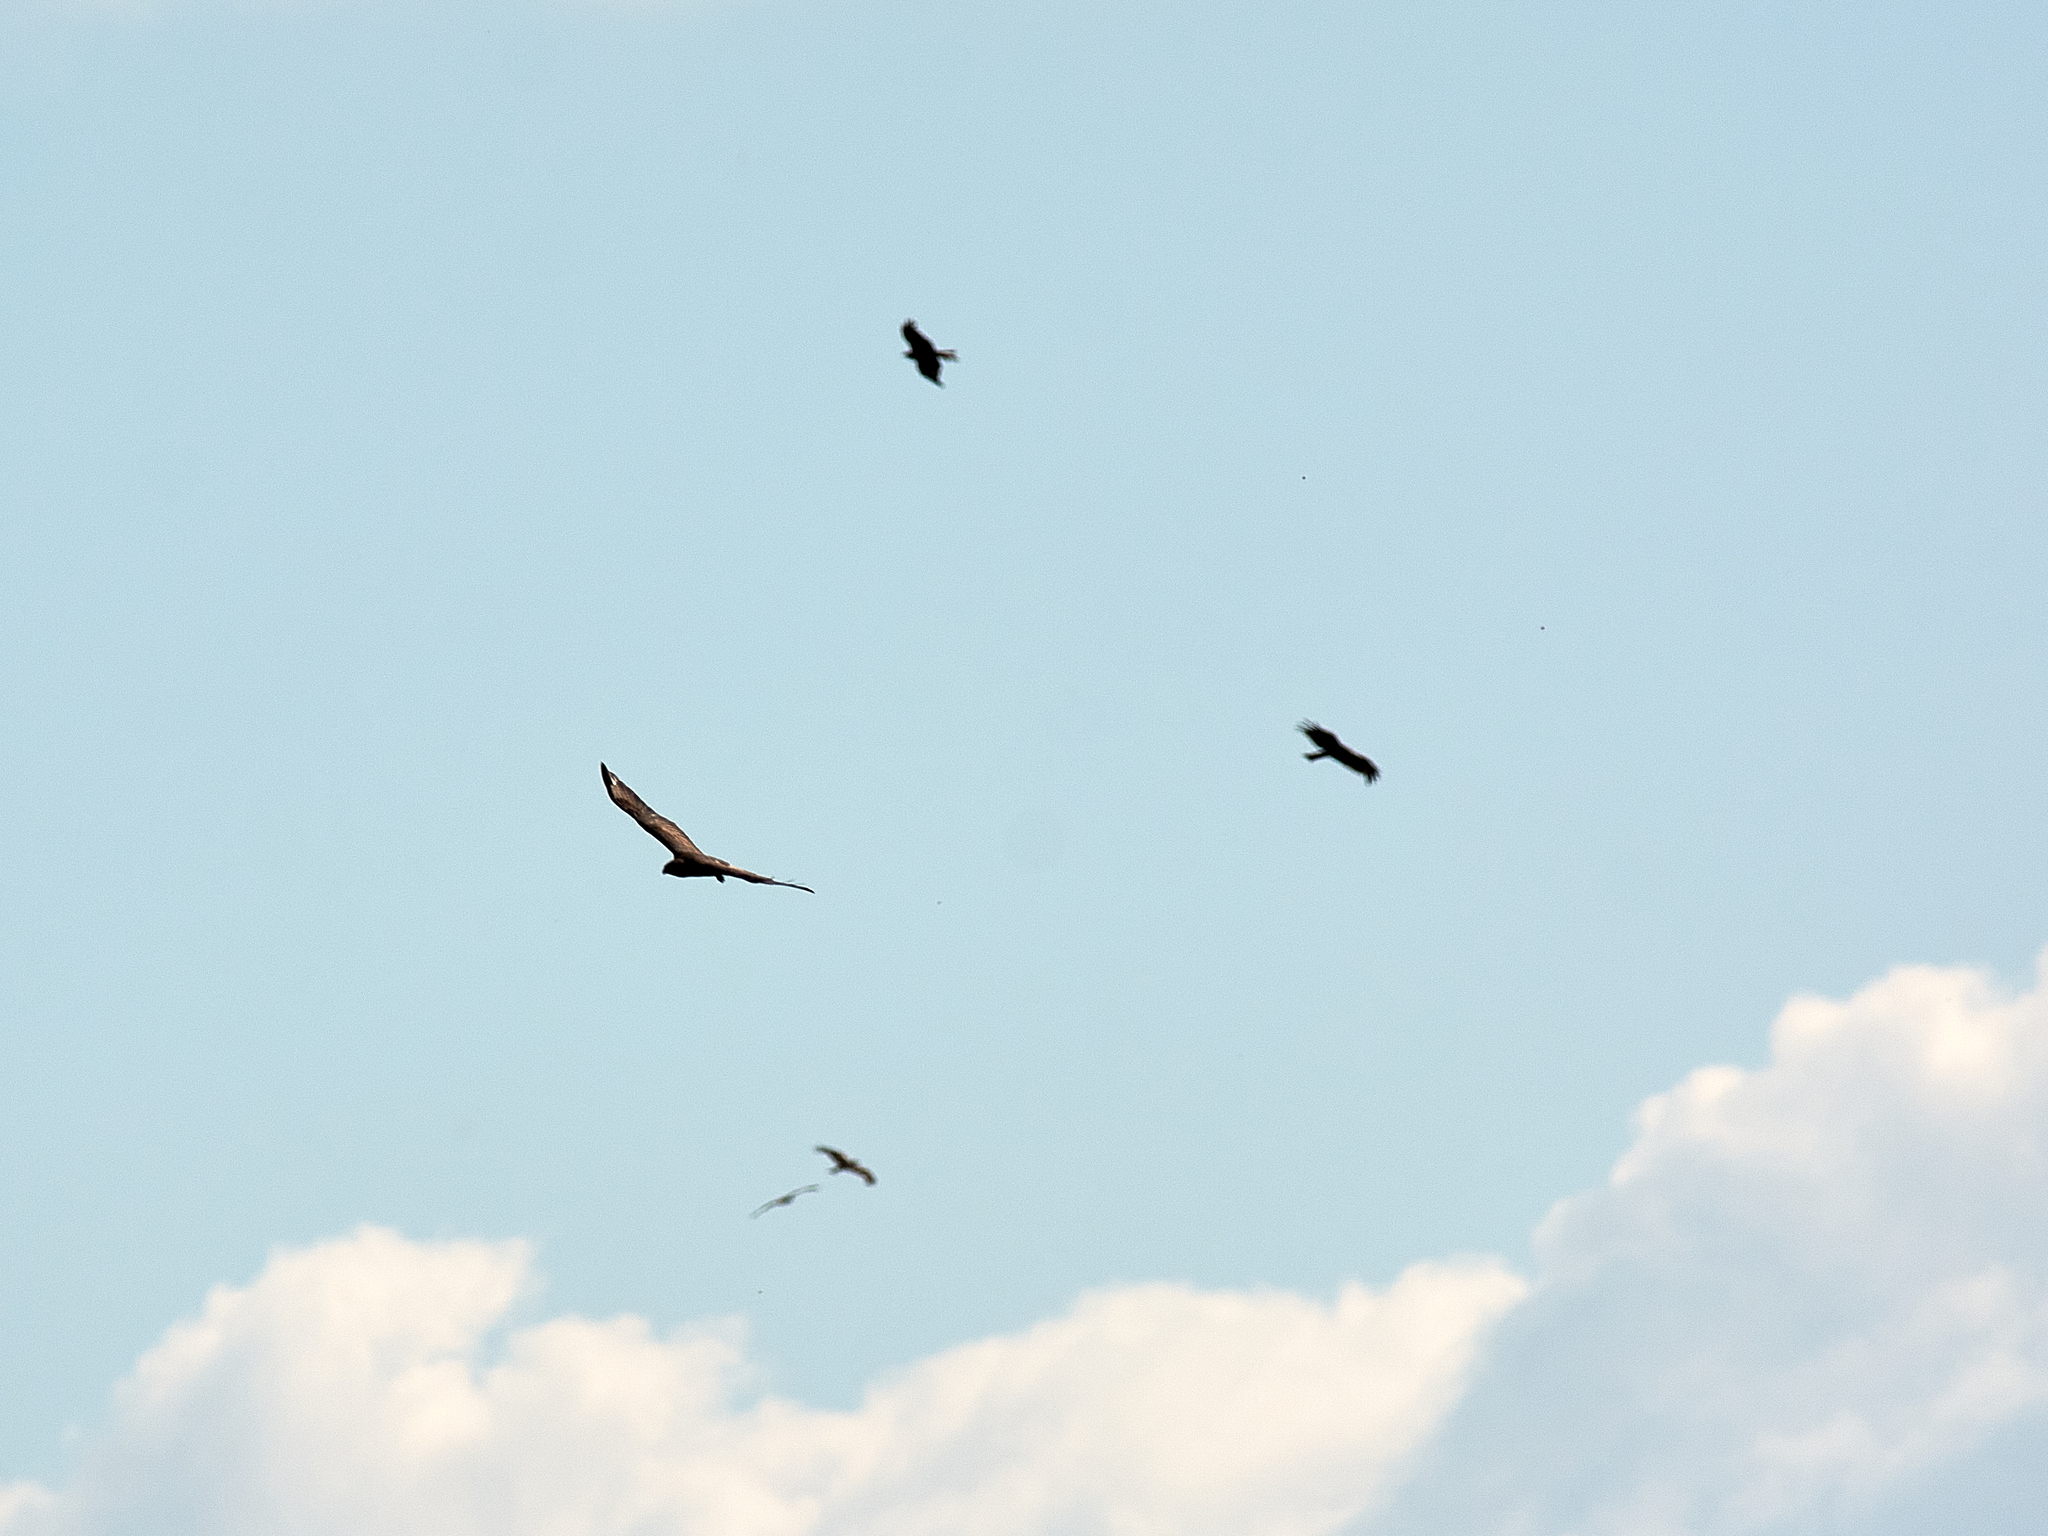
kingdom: Animalia
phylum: Chordata
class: Aves
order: Accipitriformes
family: Accipitridae
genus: Milvus
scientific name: Milvus migrans
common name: Black kite
